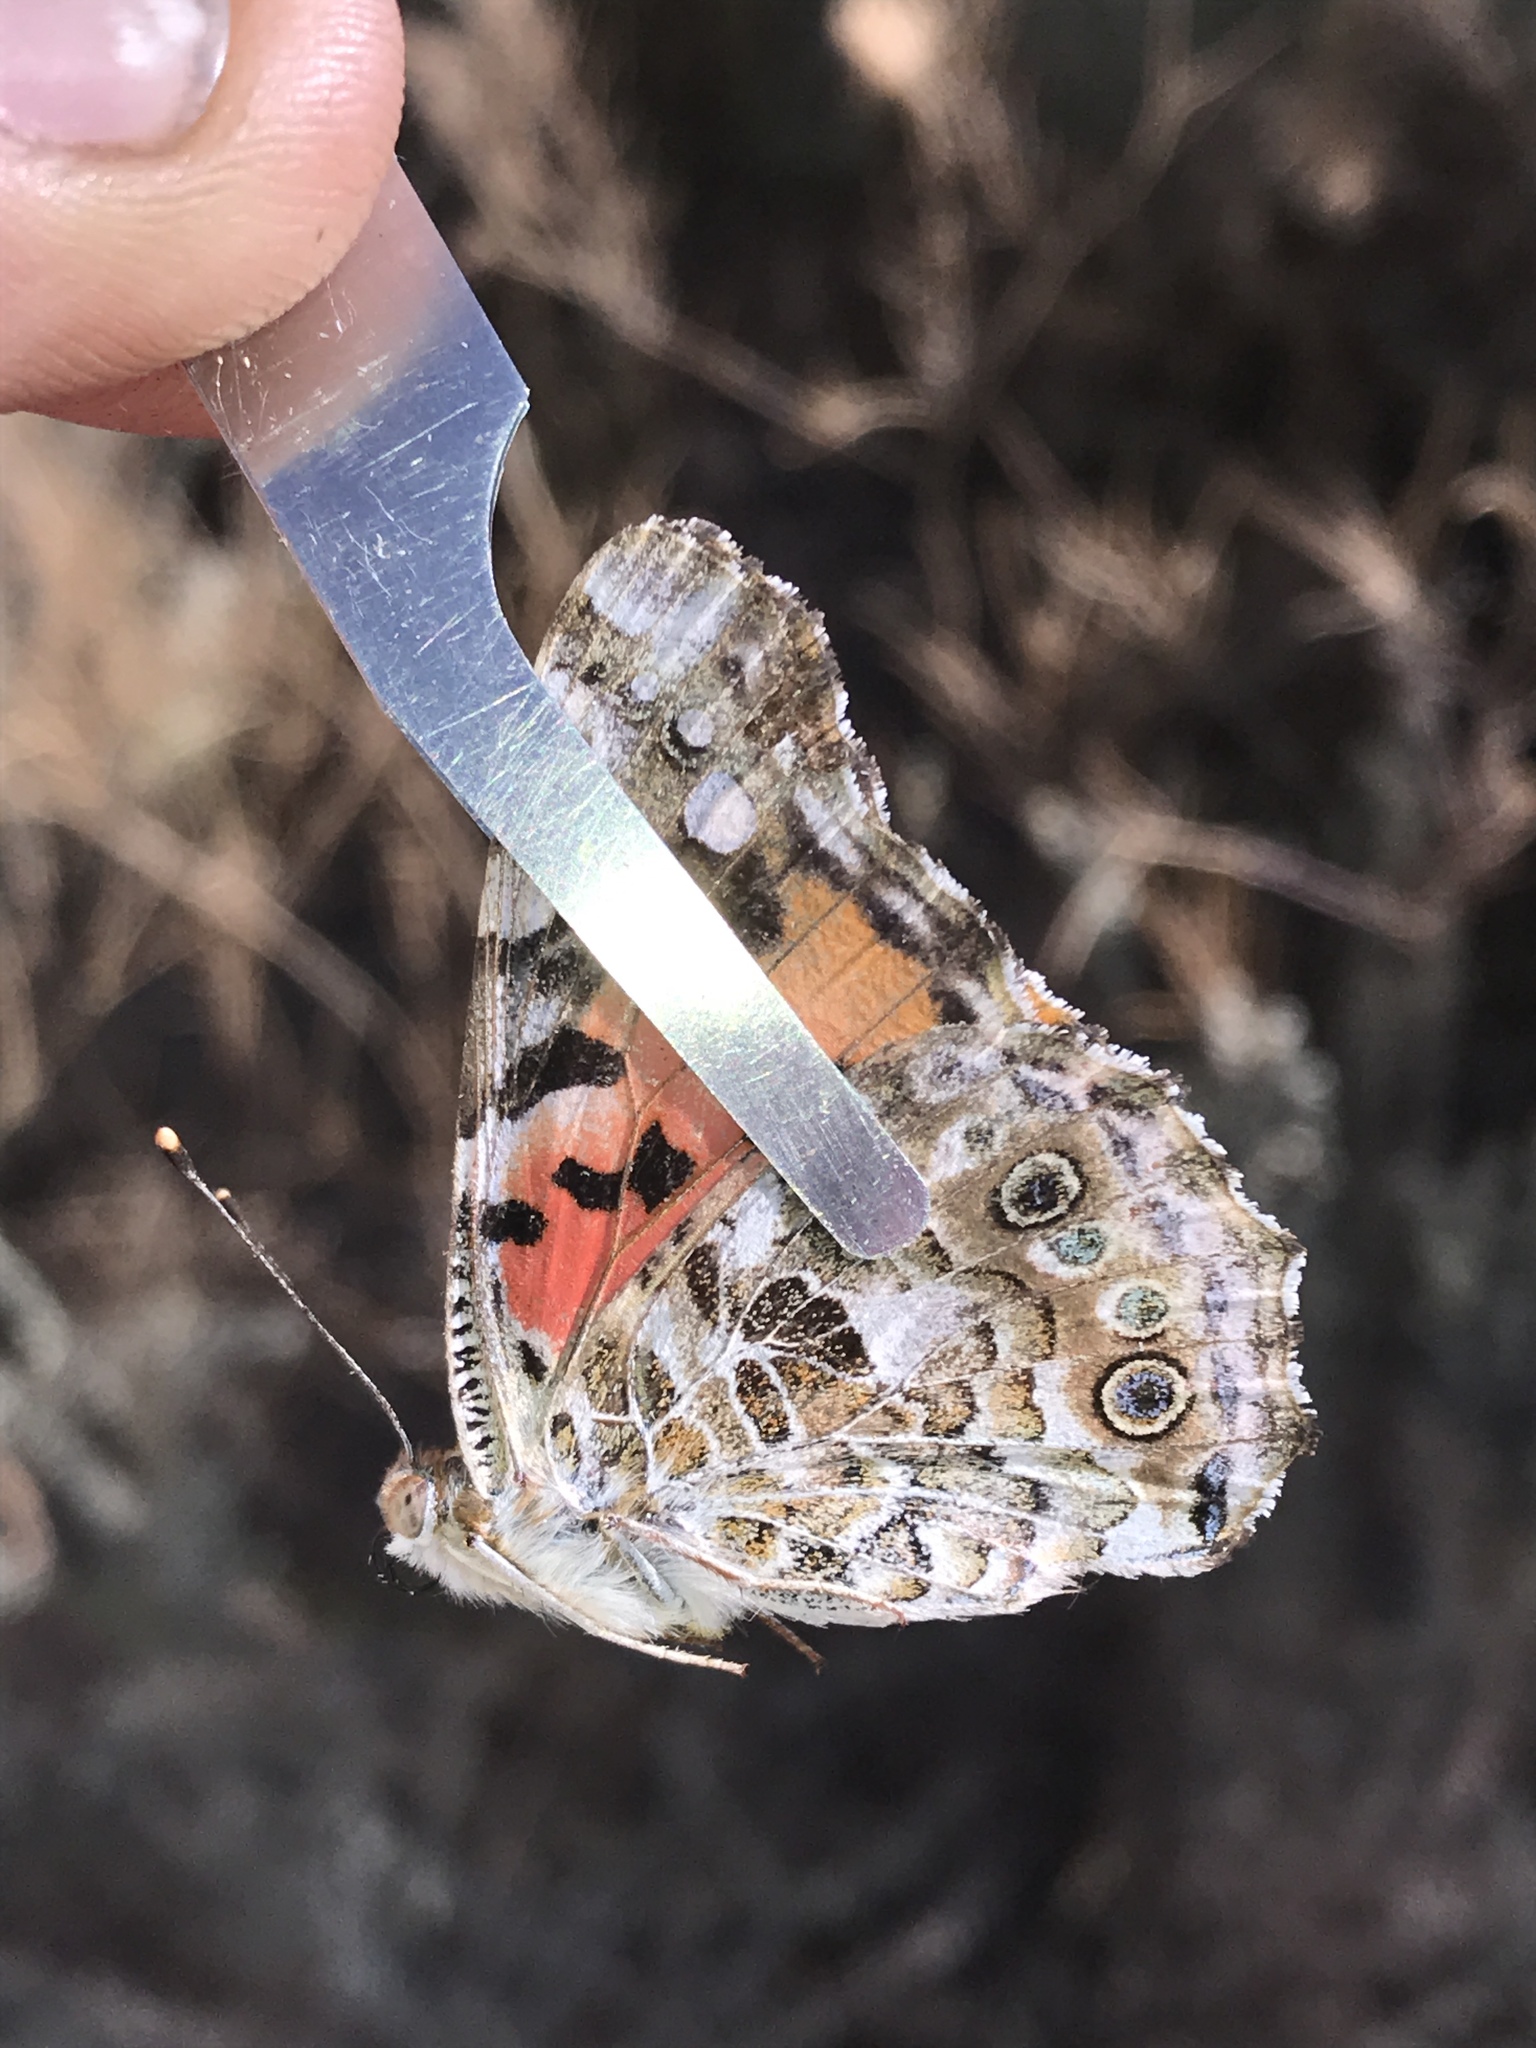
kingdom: Animalia
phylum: Arthropoda
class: Insecta
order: Lepidoptera
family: Nymphalidae
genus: Vanessa
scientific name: Vanessa cardui
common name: Painted lady
